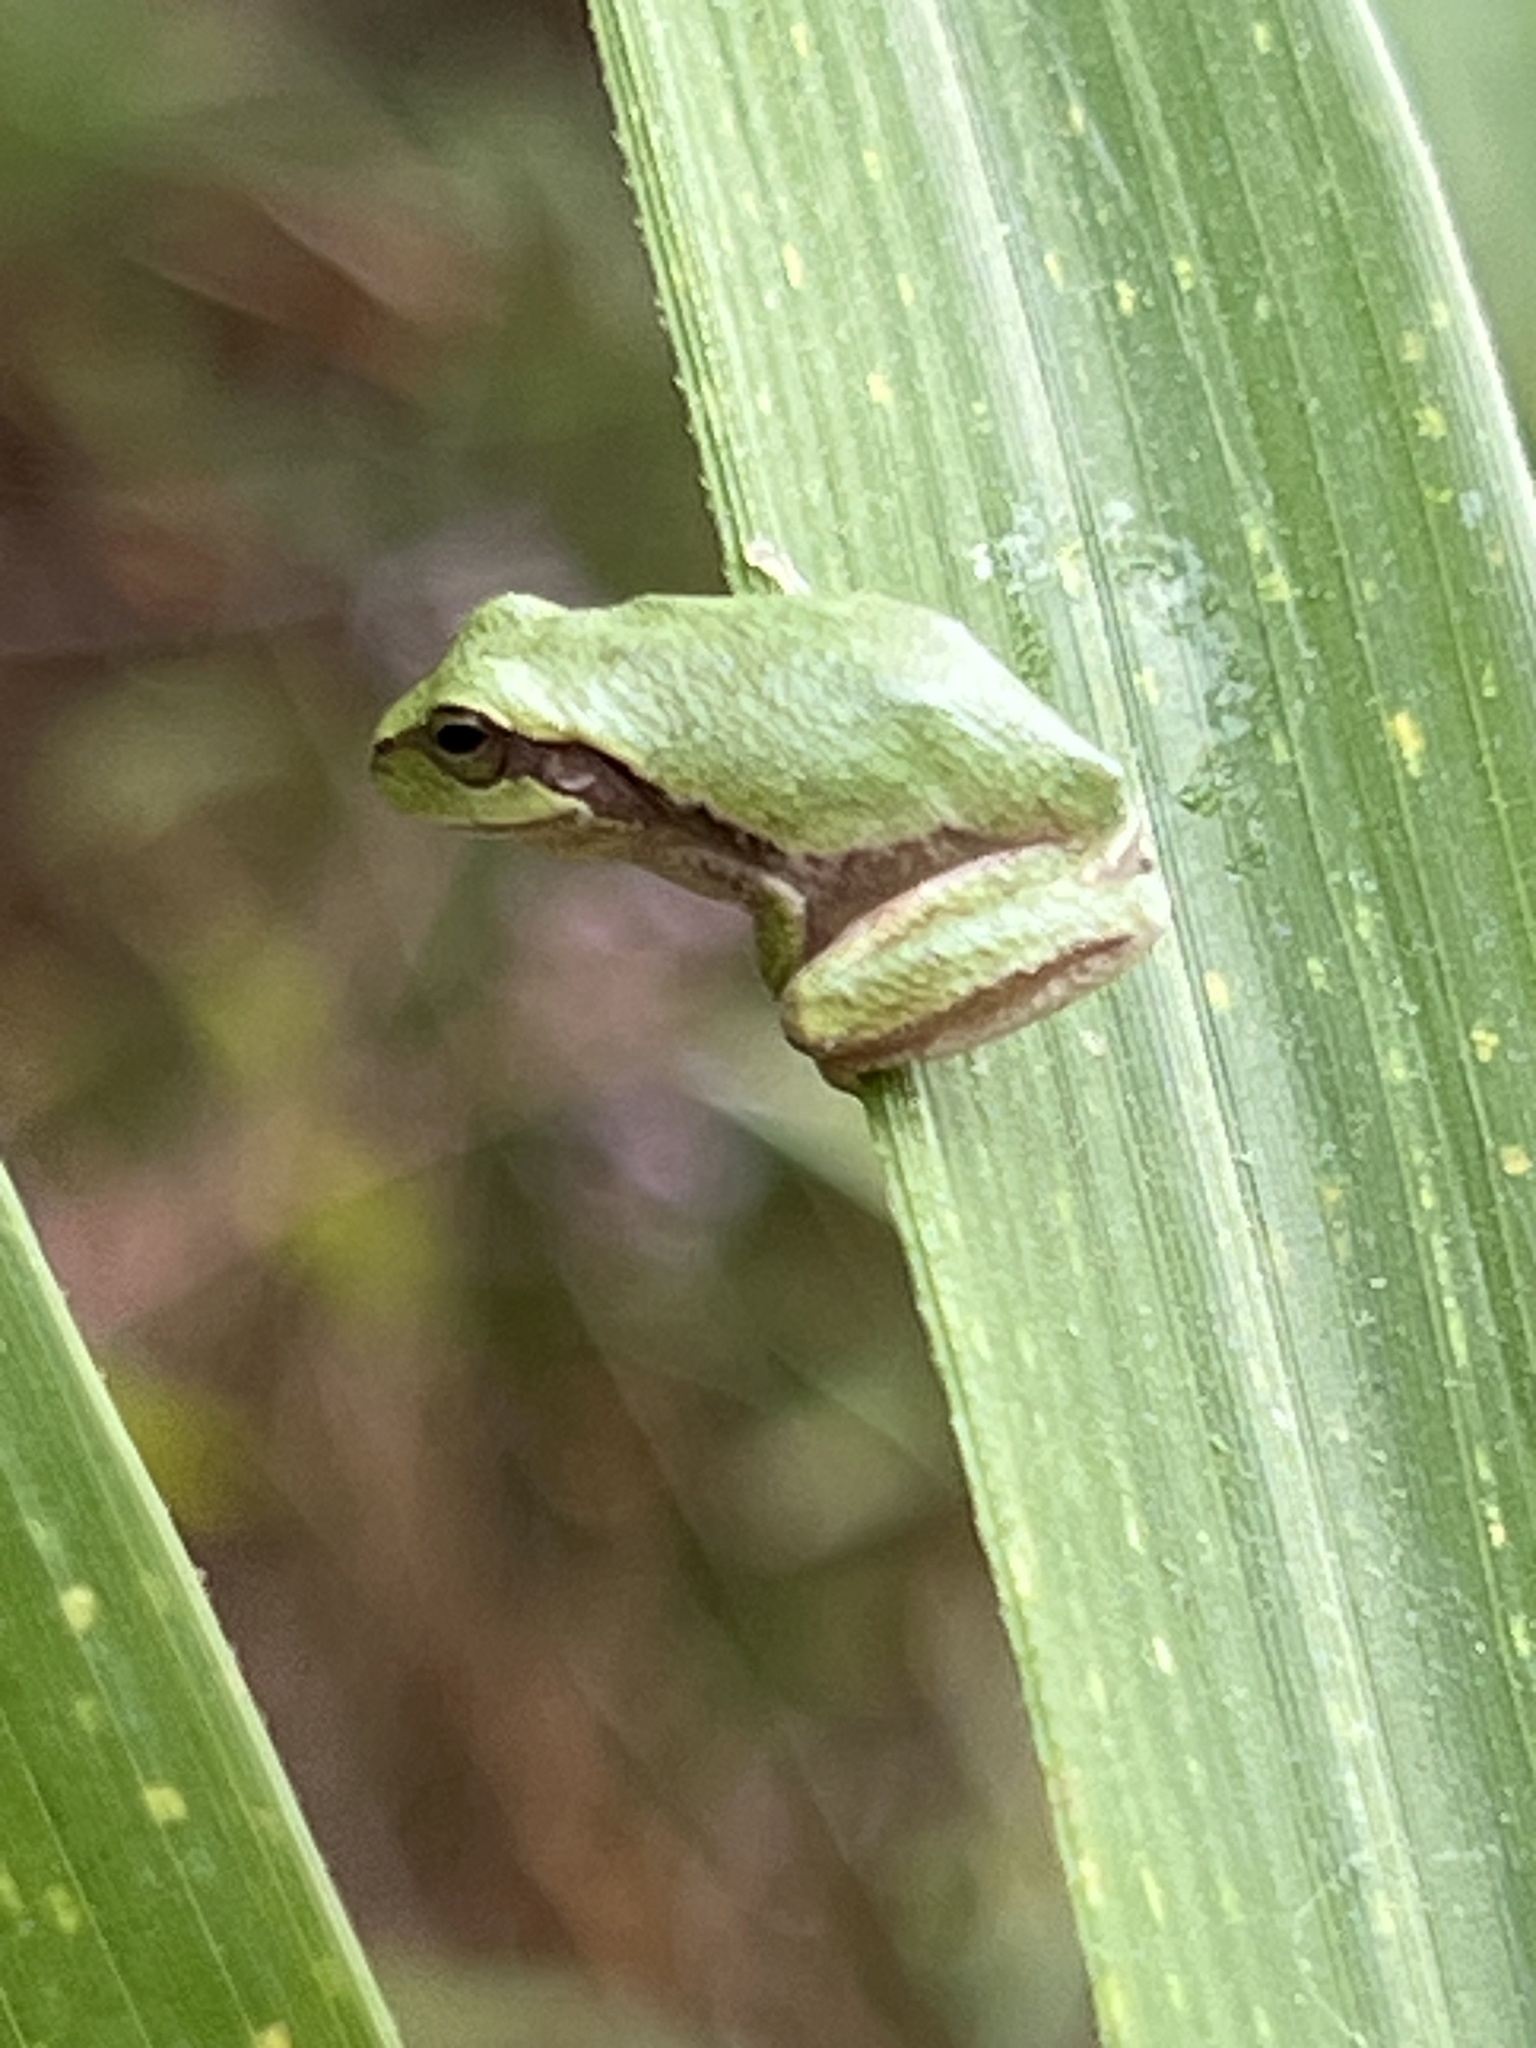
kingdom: Animalia
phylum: Chordata
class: Amphibia
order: Anura
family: Hylidae
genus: Hyla
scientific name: Hyla femoralis
